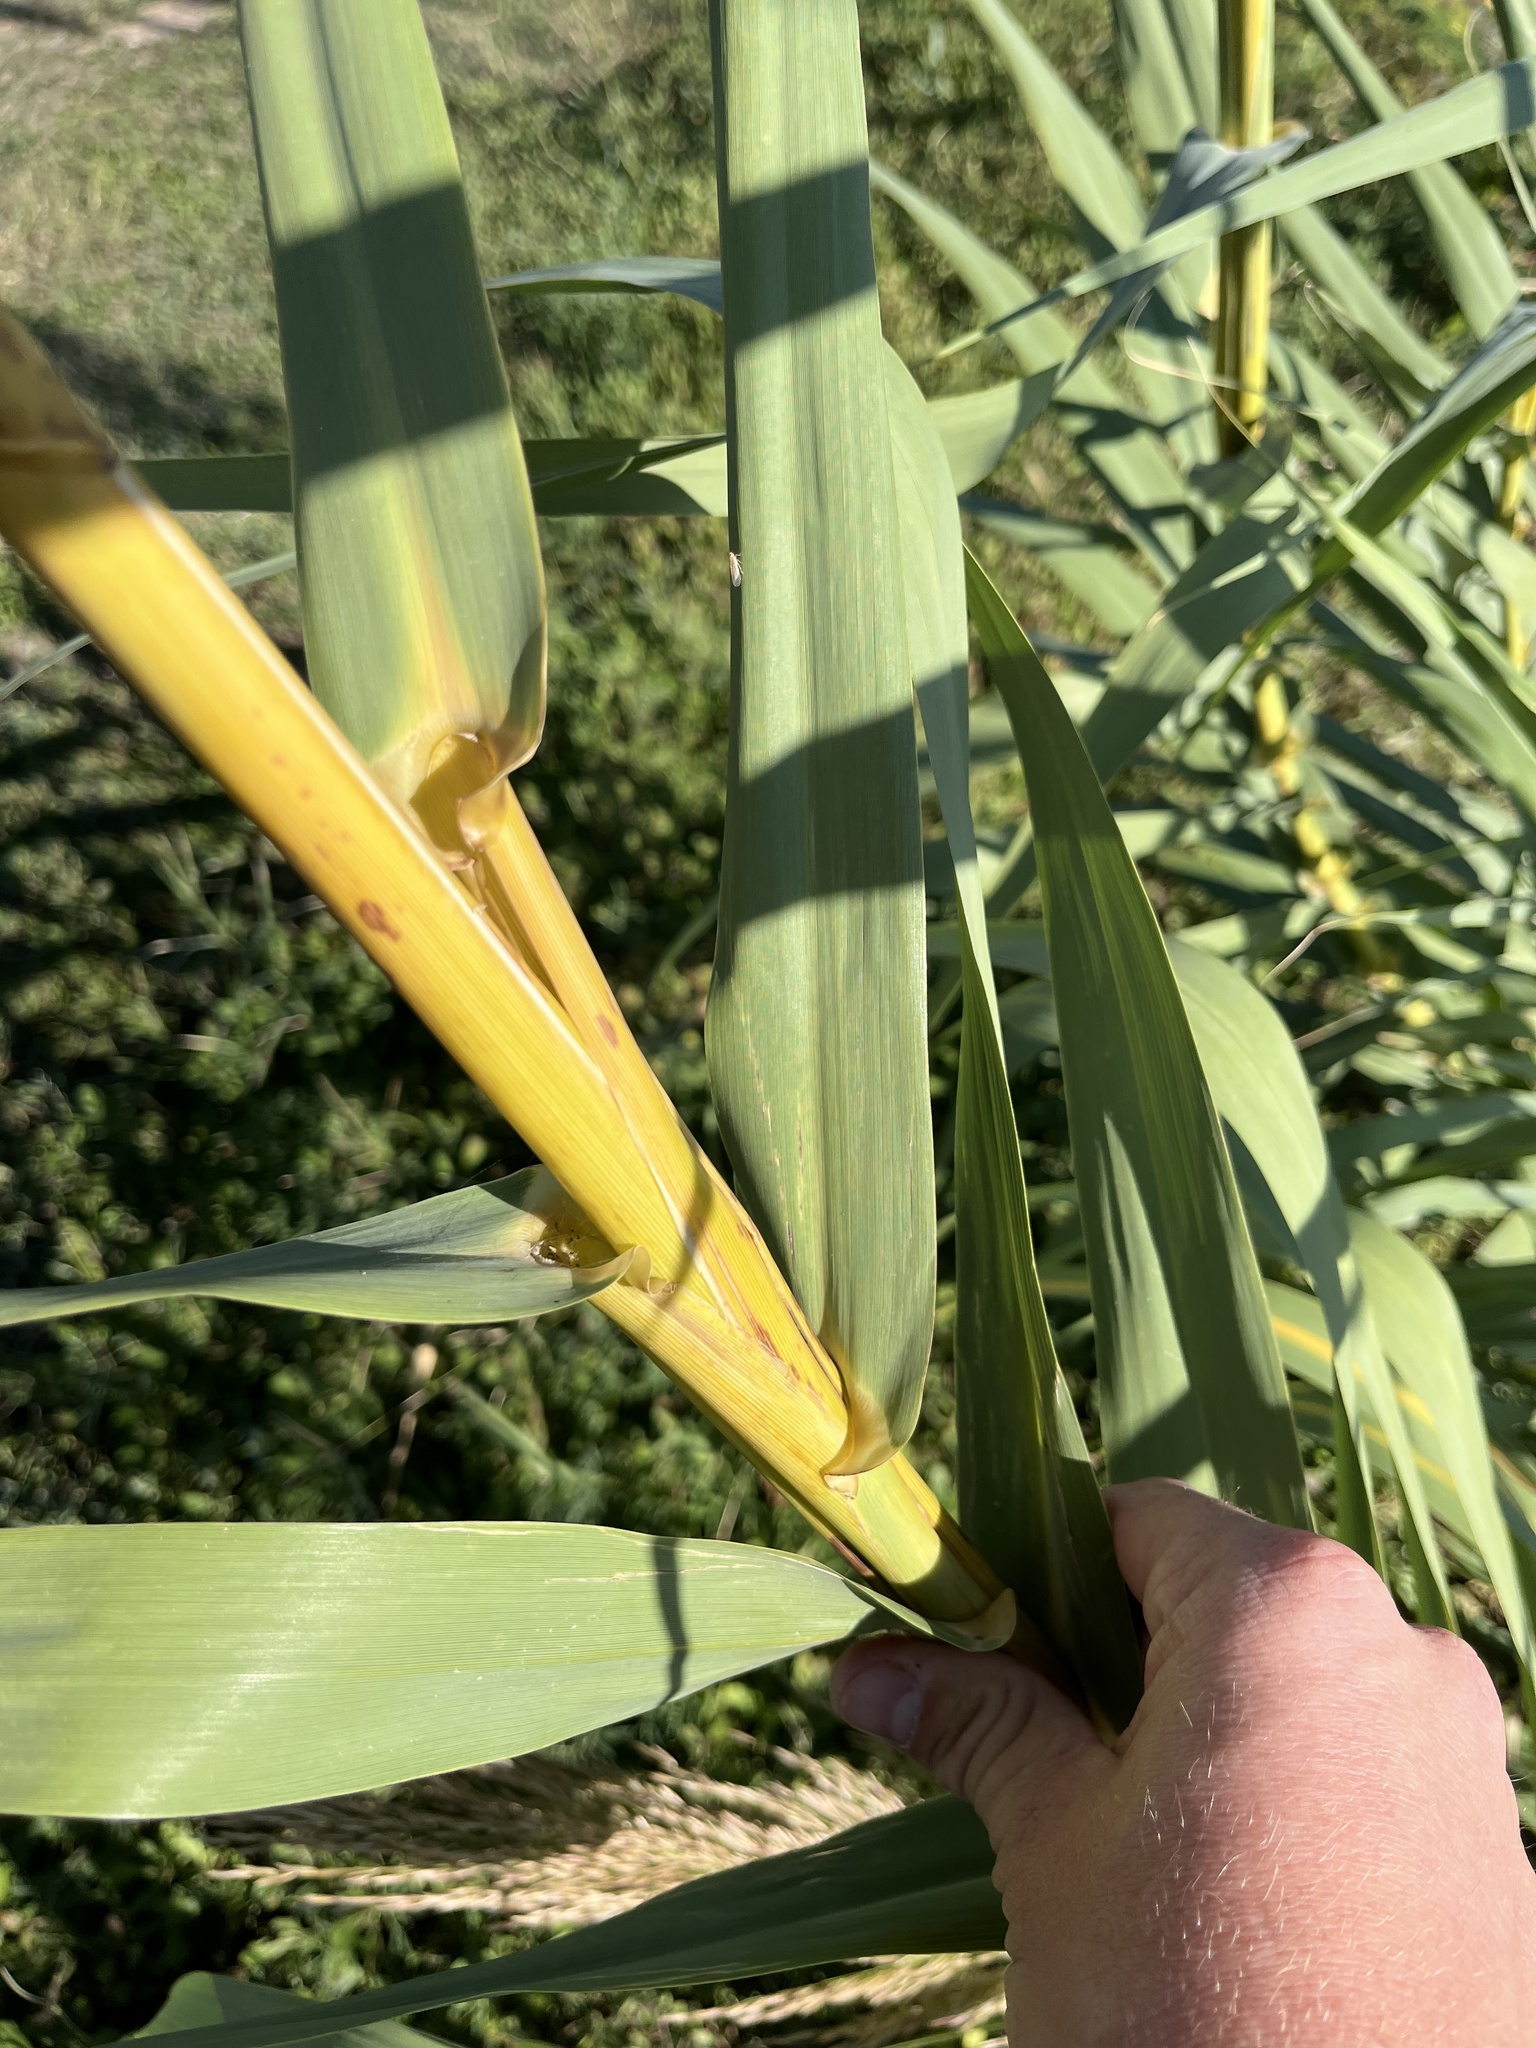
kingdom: Plantae
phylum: Tracheophyta
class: Liliopsida
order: Poales
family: Poaceae
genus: Arundo
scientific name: Arundo donax
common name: Giant reed
